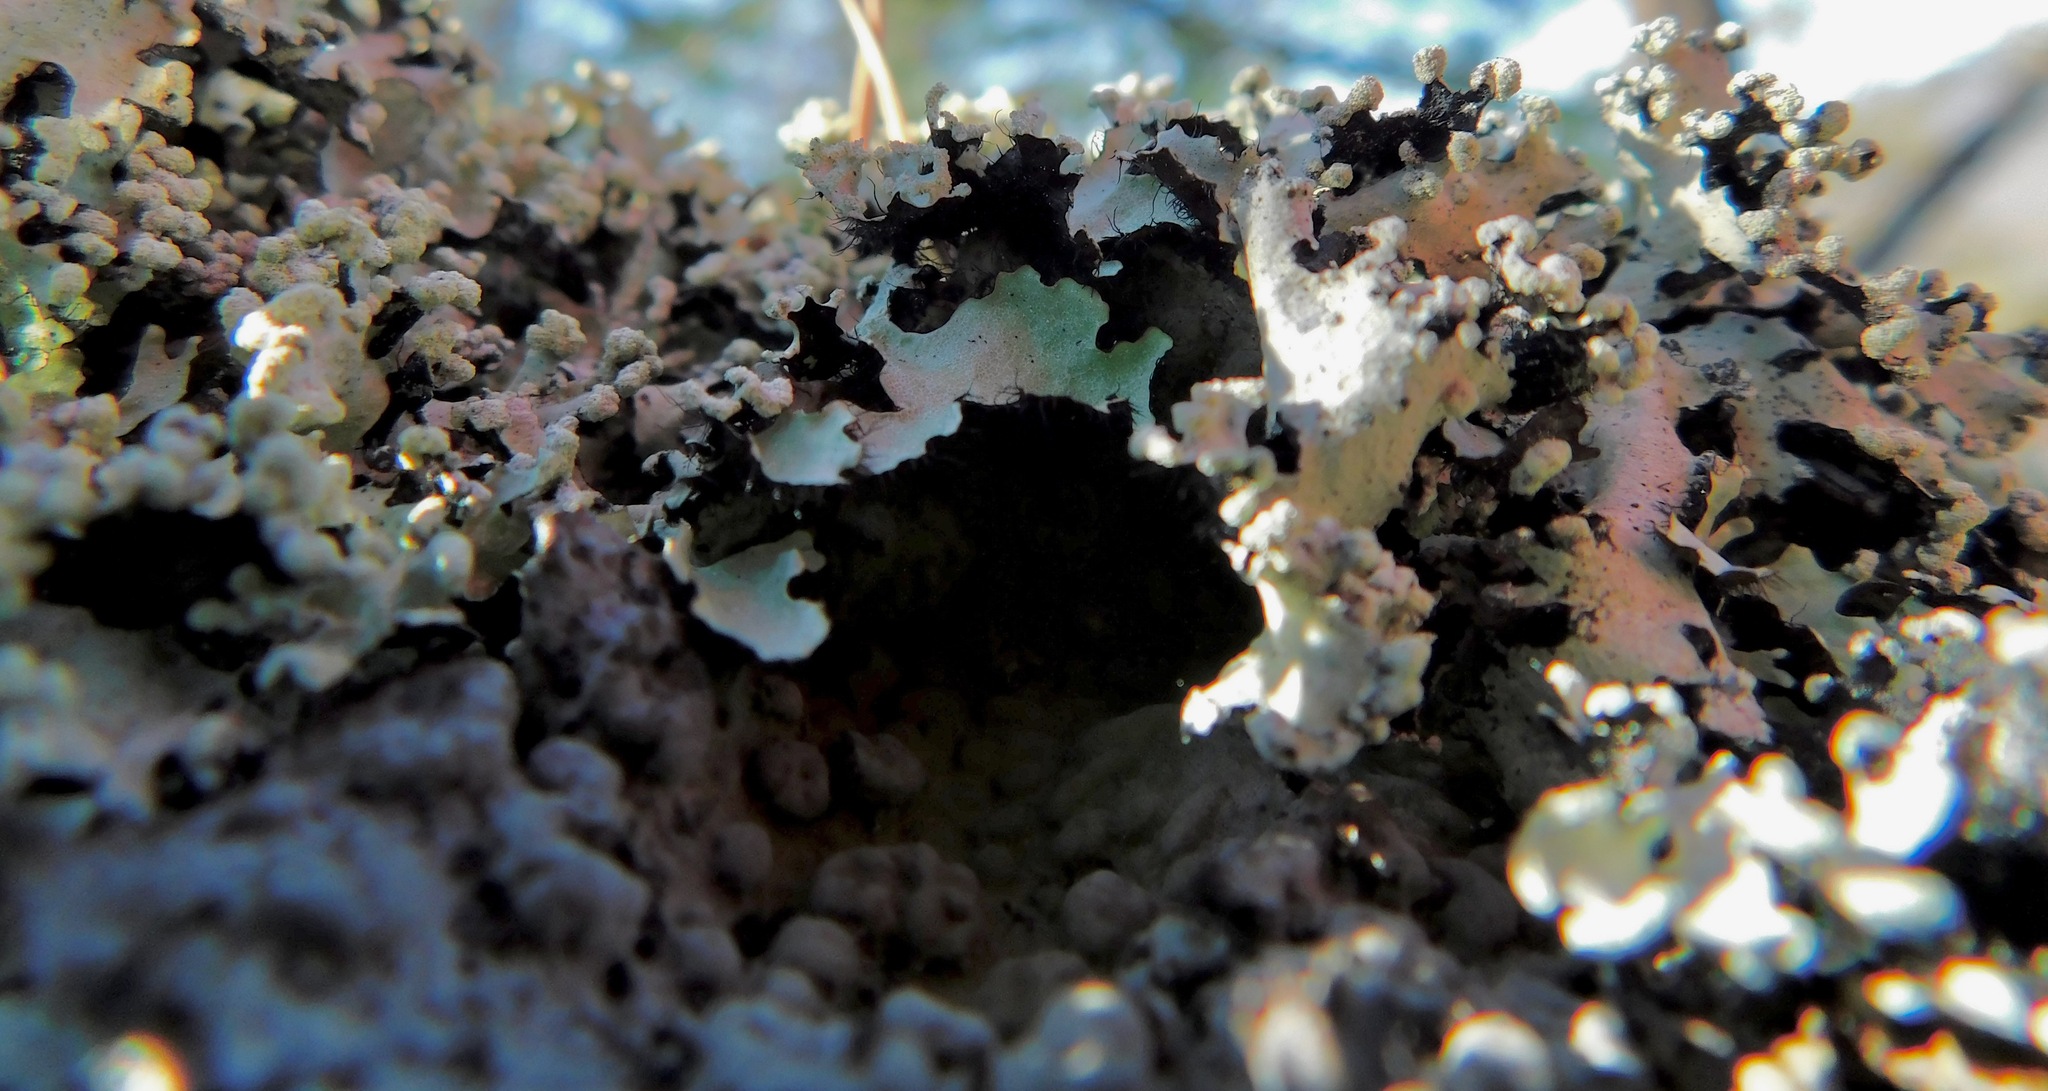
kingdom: Fungi
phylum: Ascomycota
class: Lecanoromycetes
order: Lecanorales
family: Parmeliaceae
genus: Parmotrema
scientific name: Parmotrema reticulatum
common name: Black sheet lichen
